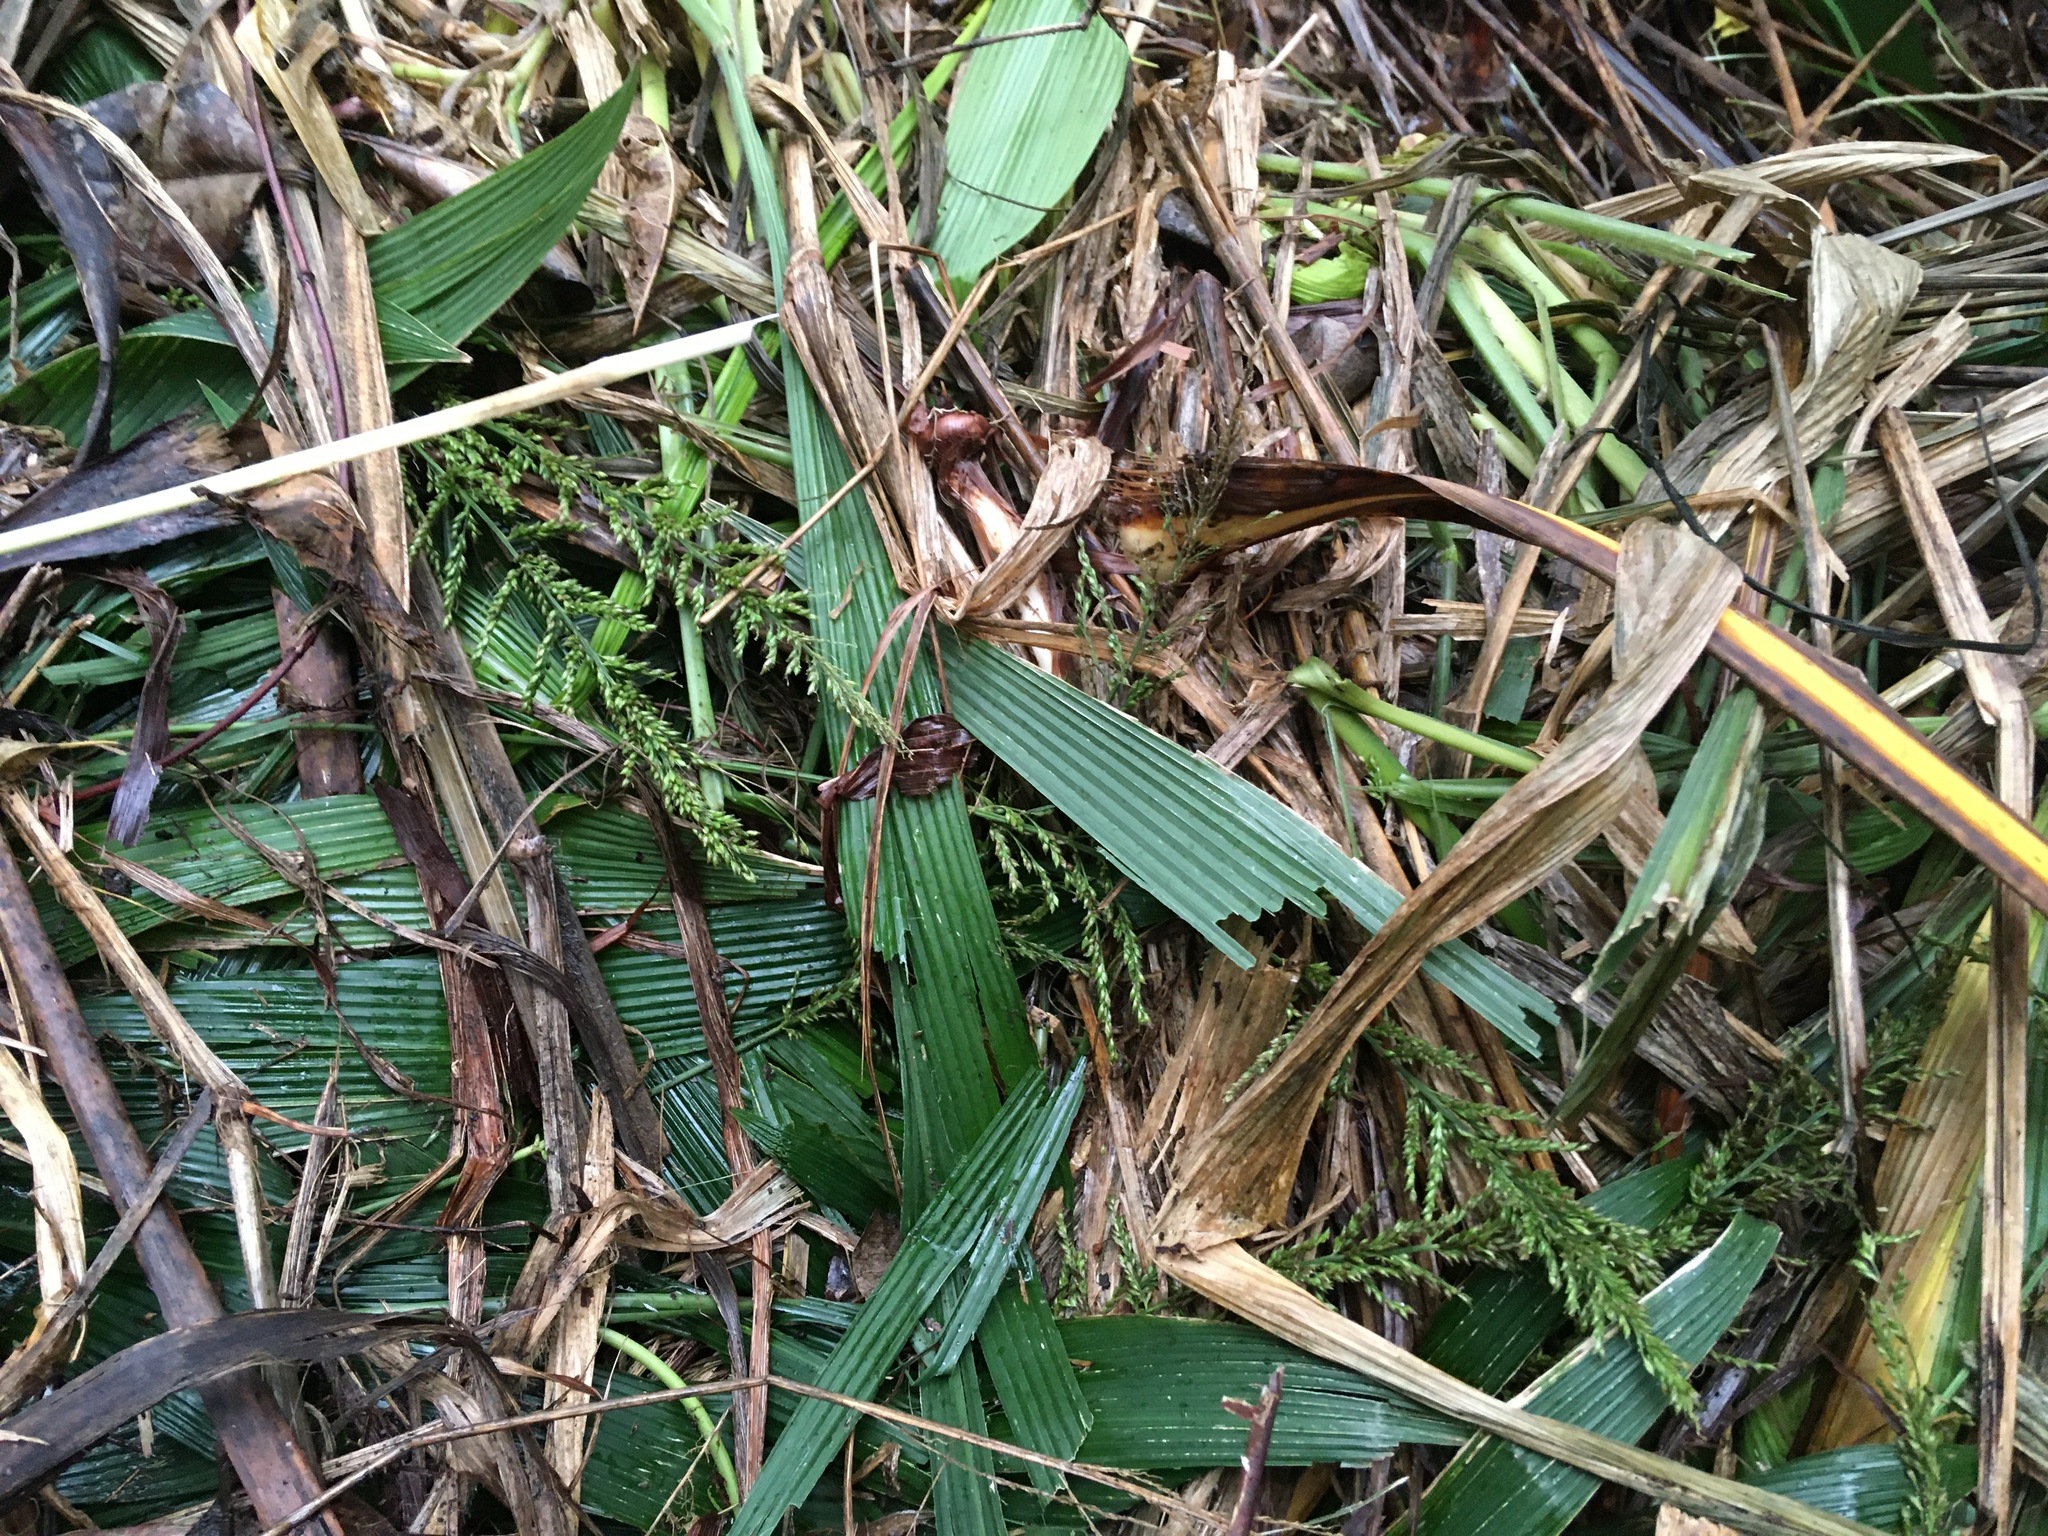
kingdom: Plantae
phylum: Tracheophyta
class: Liliopsida
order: Poales
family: Poaceae
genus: Setaria
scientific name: Setaria palmifolia
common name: Broadleaved bristlegrass
